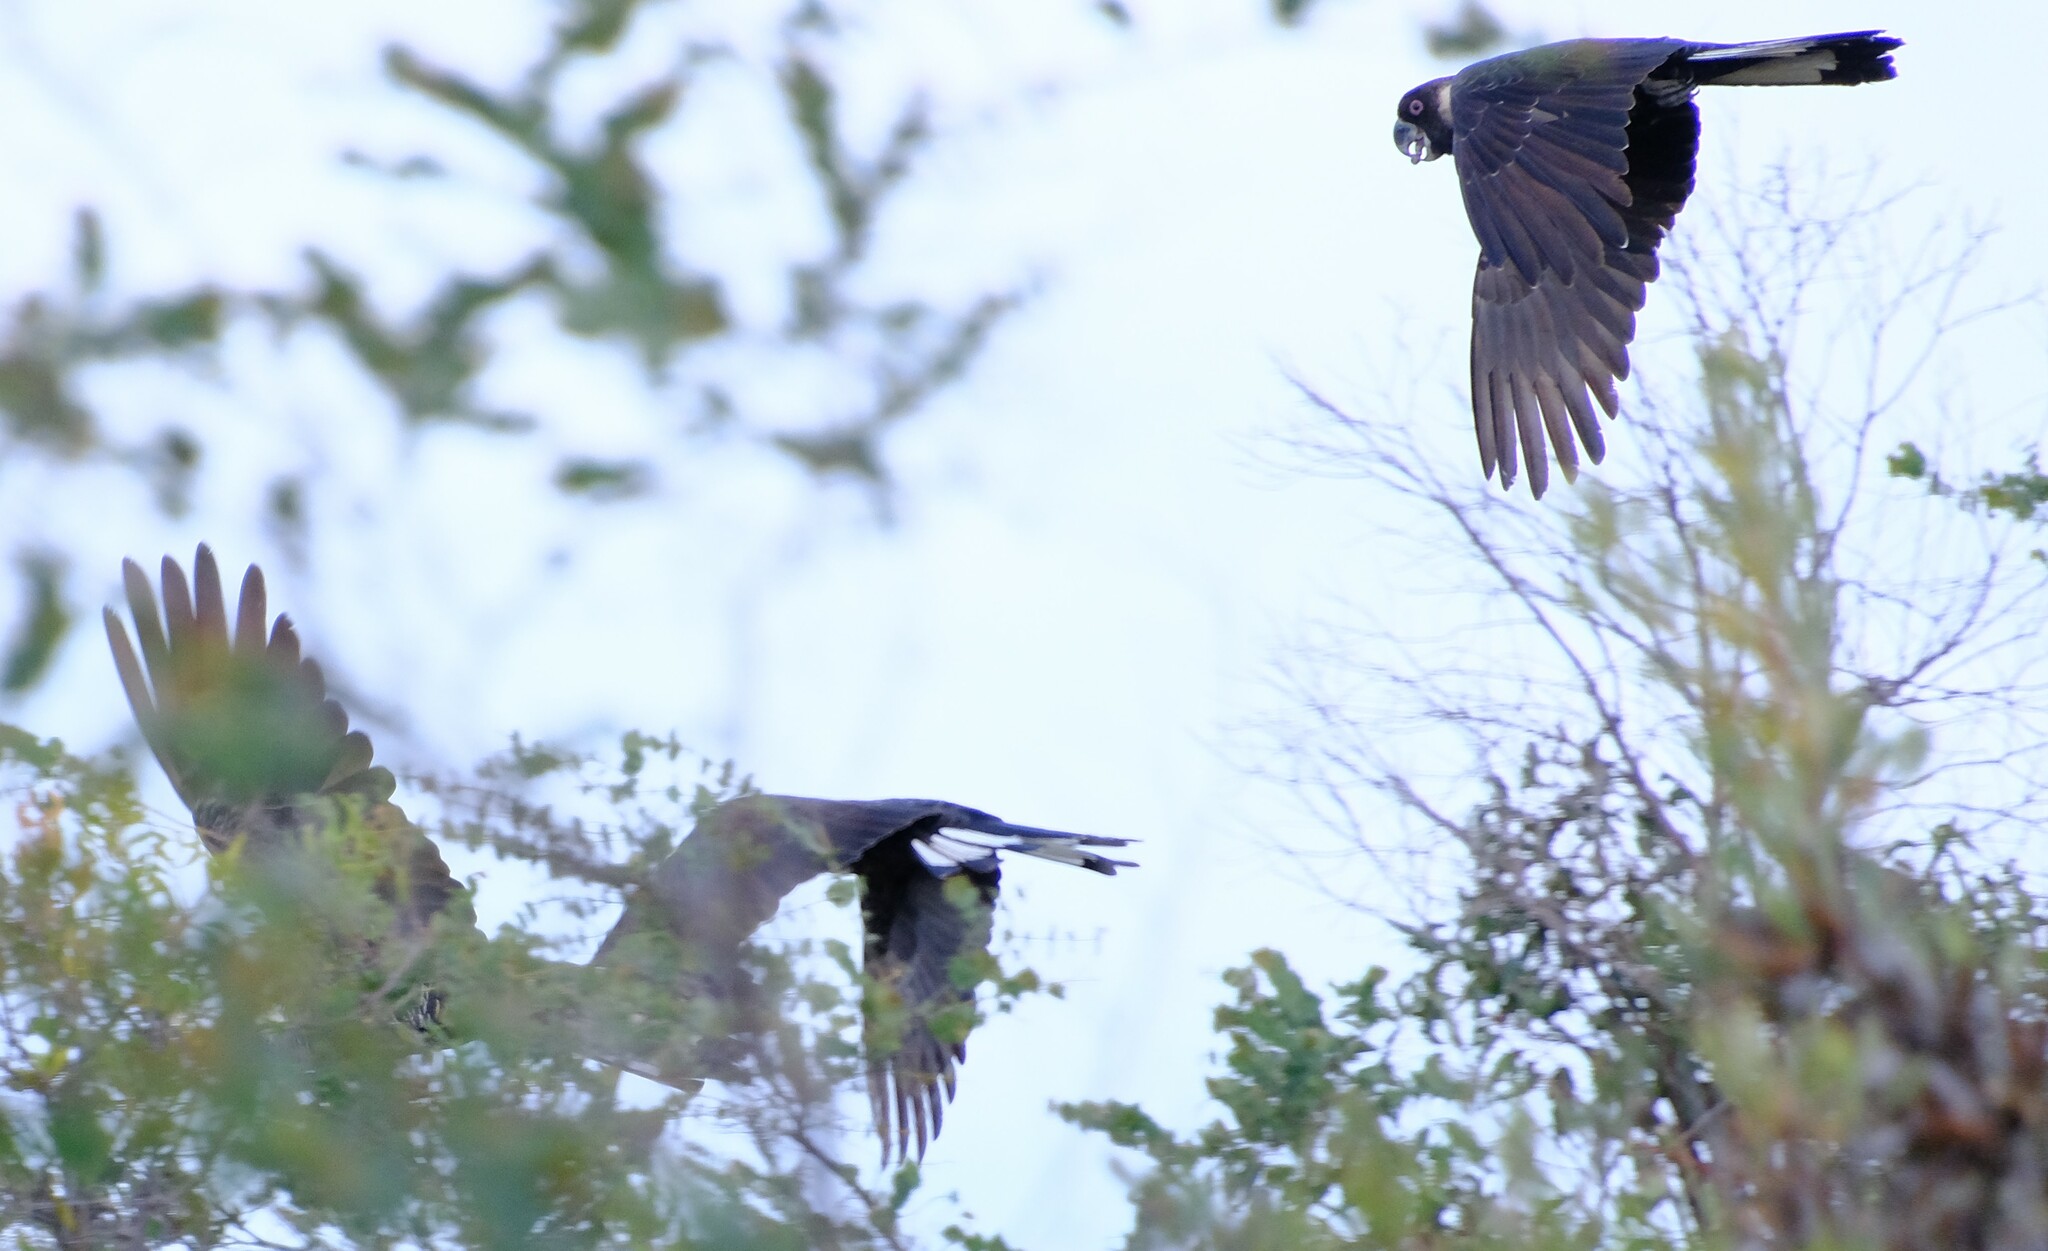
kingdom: Animalia
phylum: Chordata
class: Aves
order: Psittaciformes
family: Cacatuidae
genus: Zanda
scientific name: Zanda latirostris
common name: Short-billed black-cockatoo
